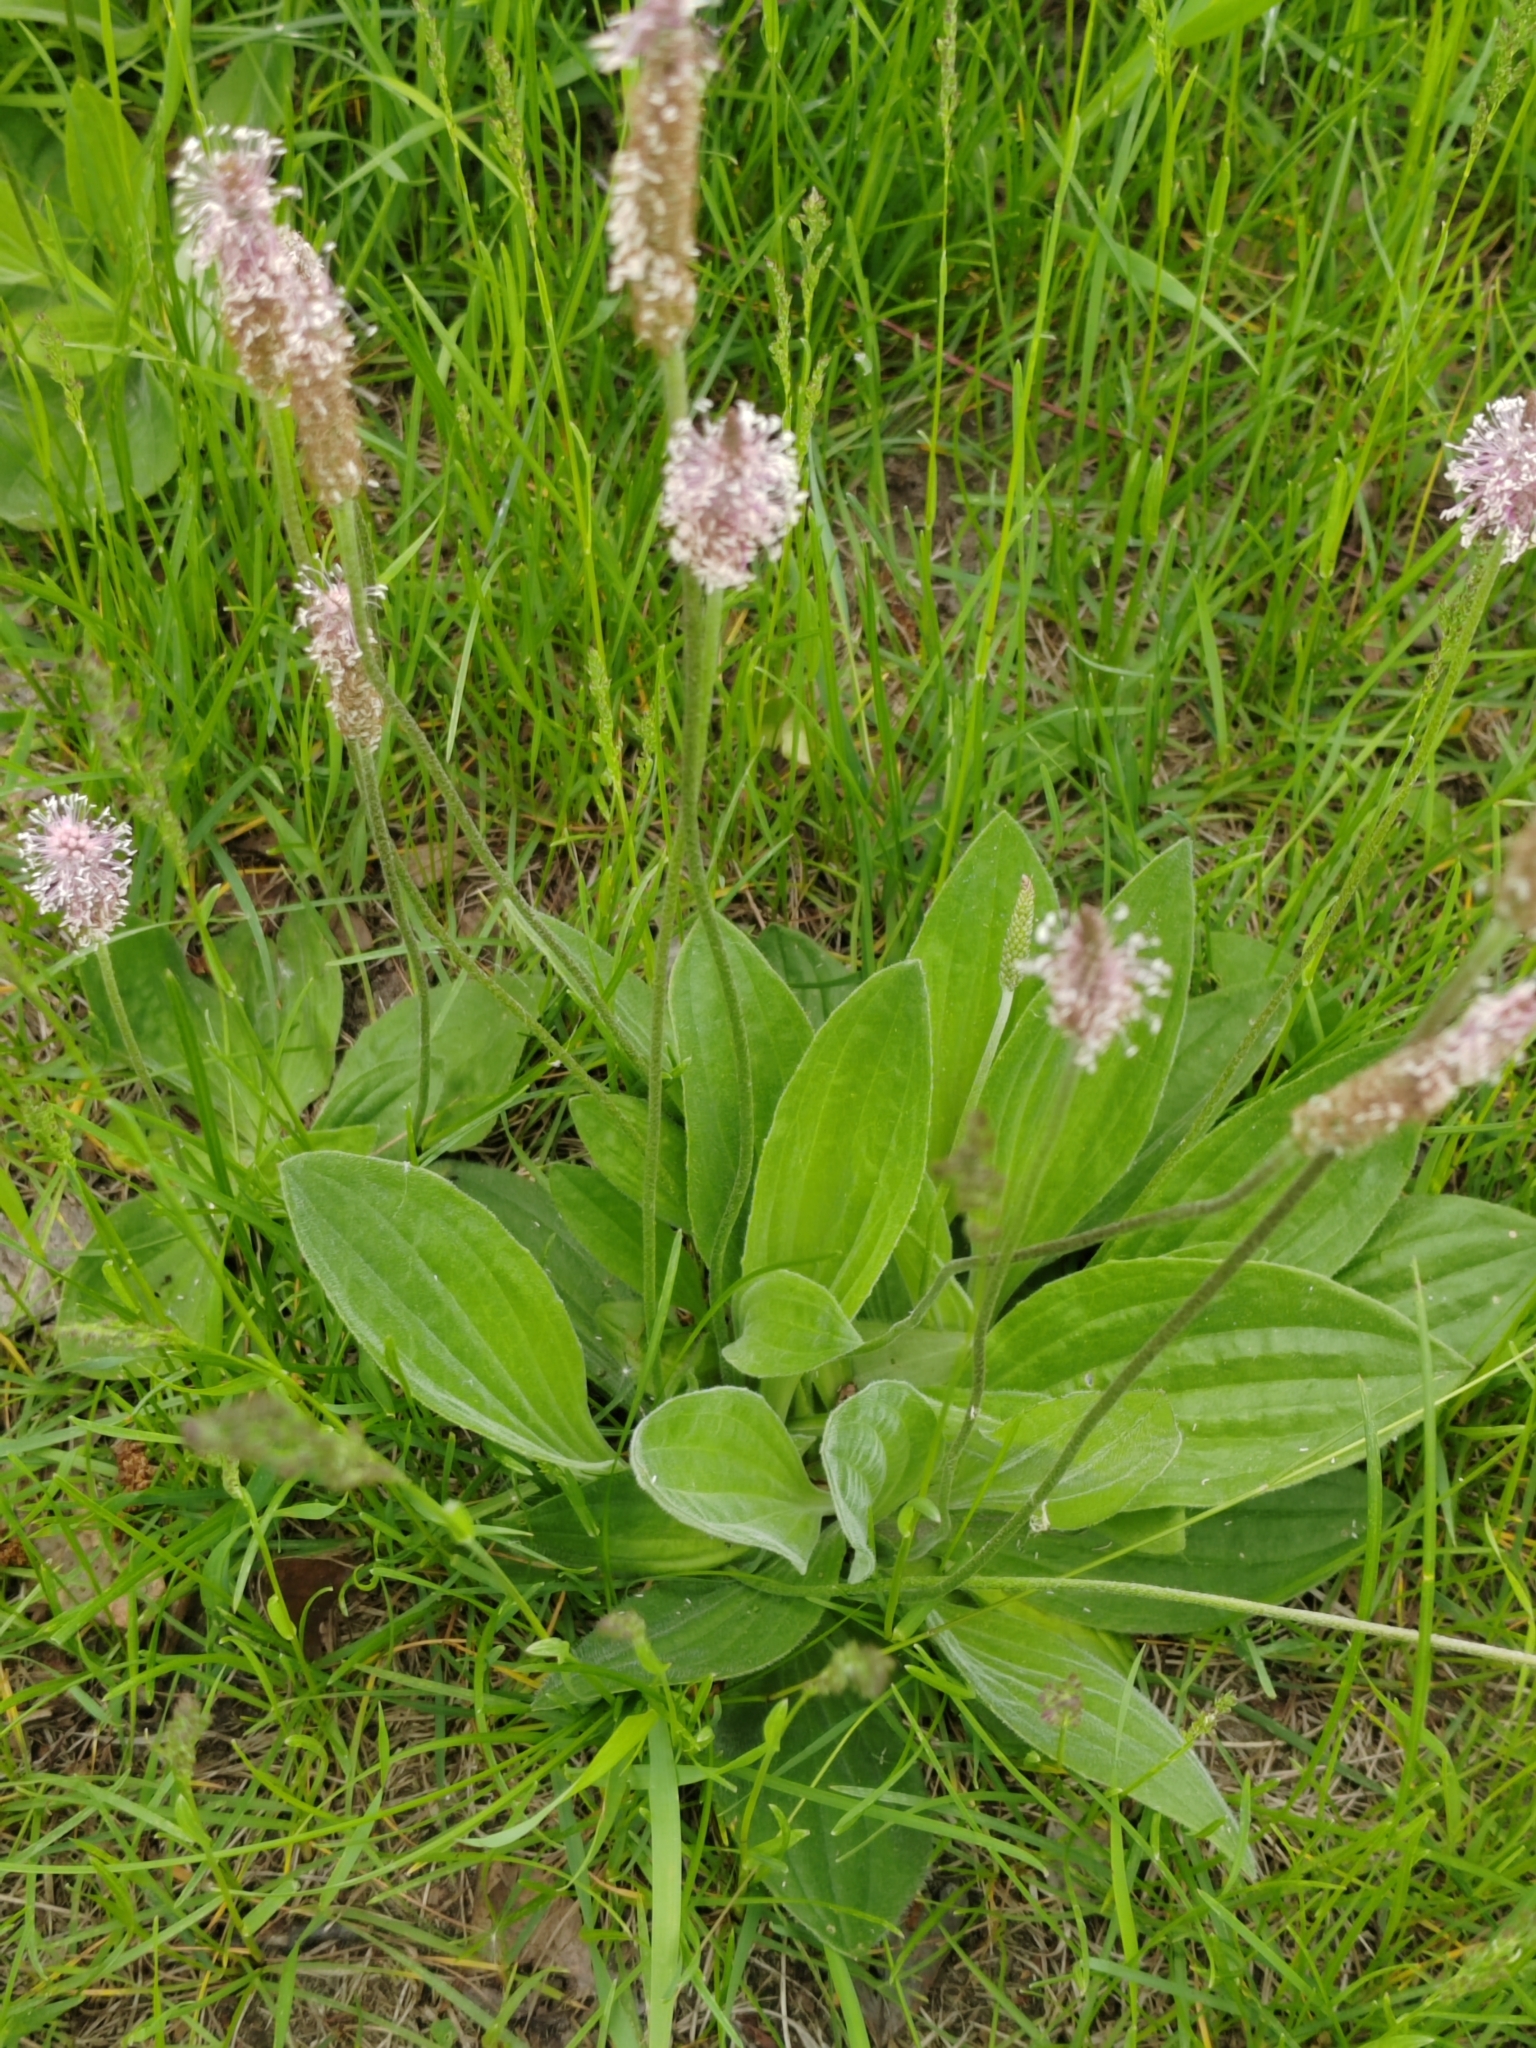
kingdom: Plantae
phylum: Tracheophyta
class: Magnoliopsida
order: Lamiales
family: Plantaginaceae
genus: Plantago
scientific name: Plantago media
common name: Hoary plantain
